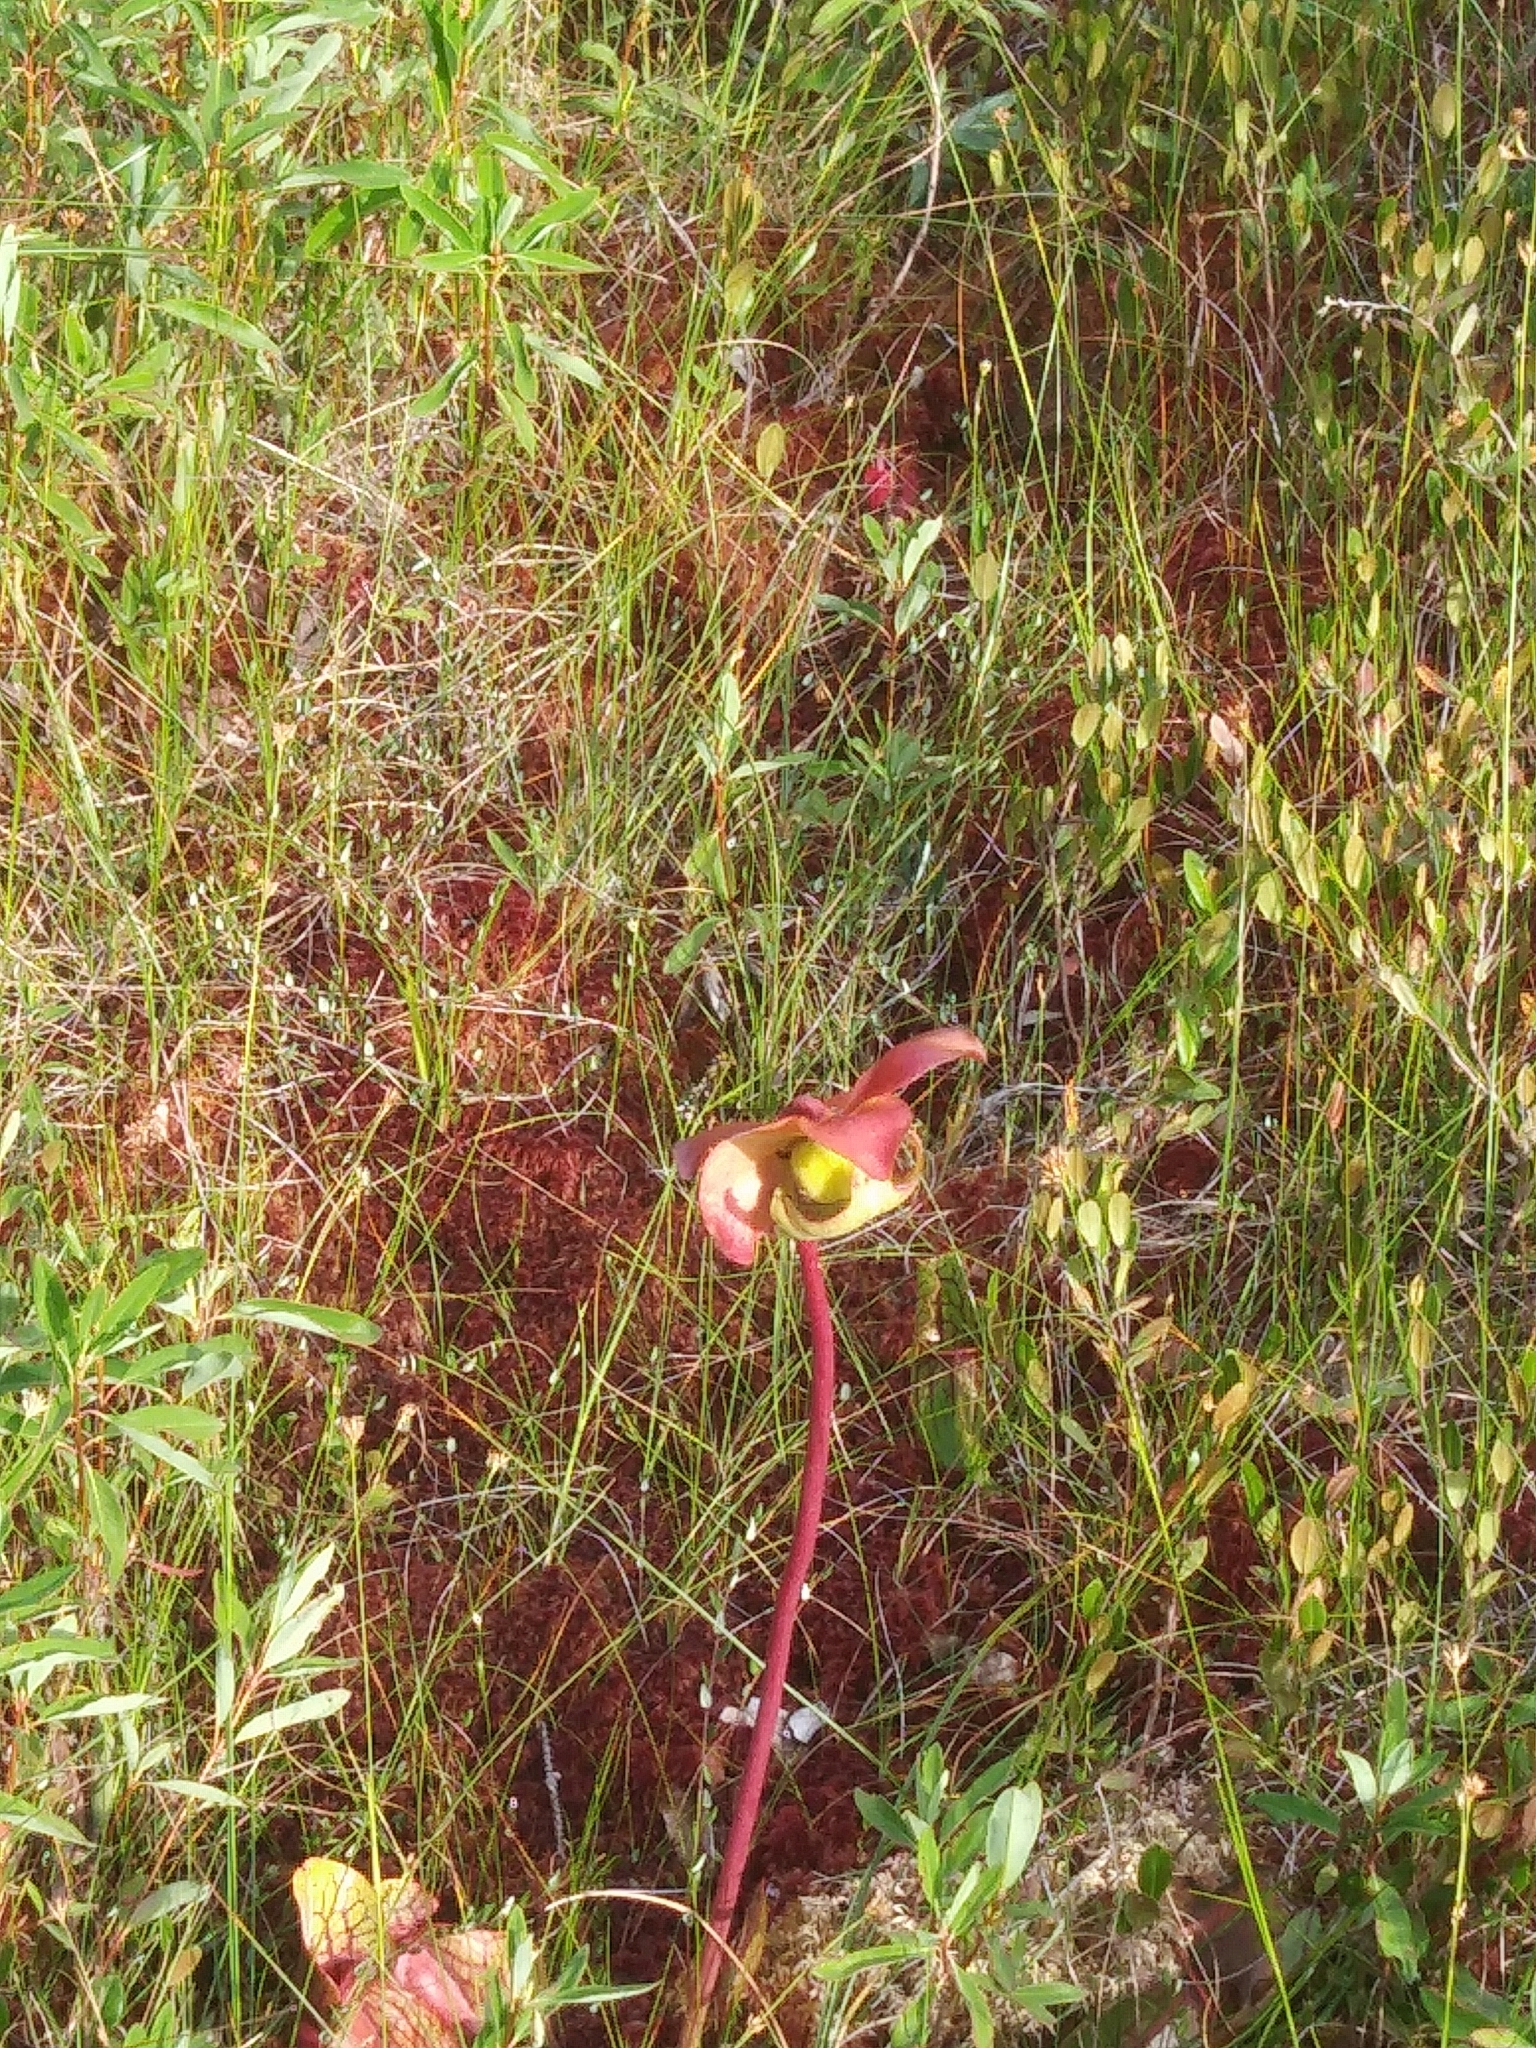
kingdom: Plantae
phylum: Tracheophyta
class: Magnoliopsida
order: Ericales
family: Sarraceniaceae
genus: Sarracenia
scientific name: Sarracenia purpurea
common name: Pitcherplant
